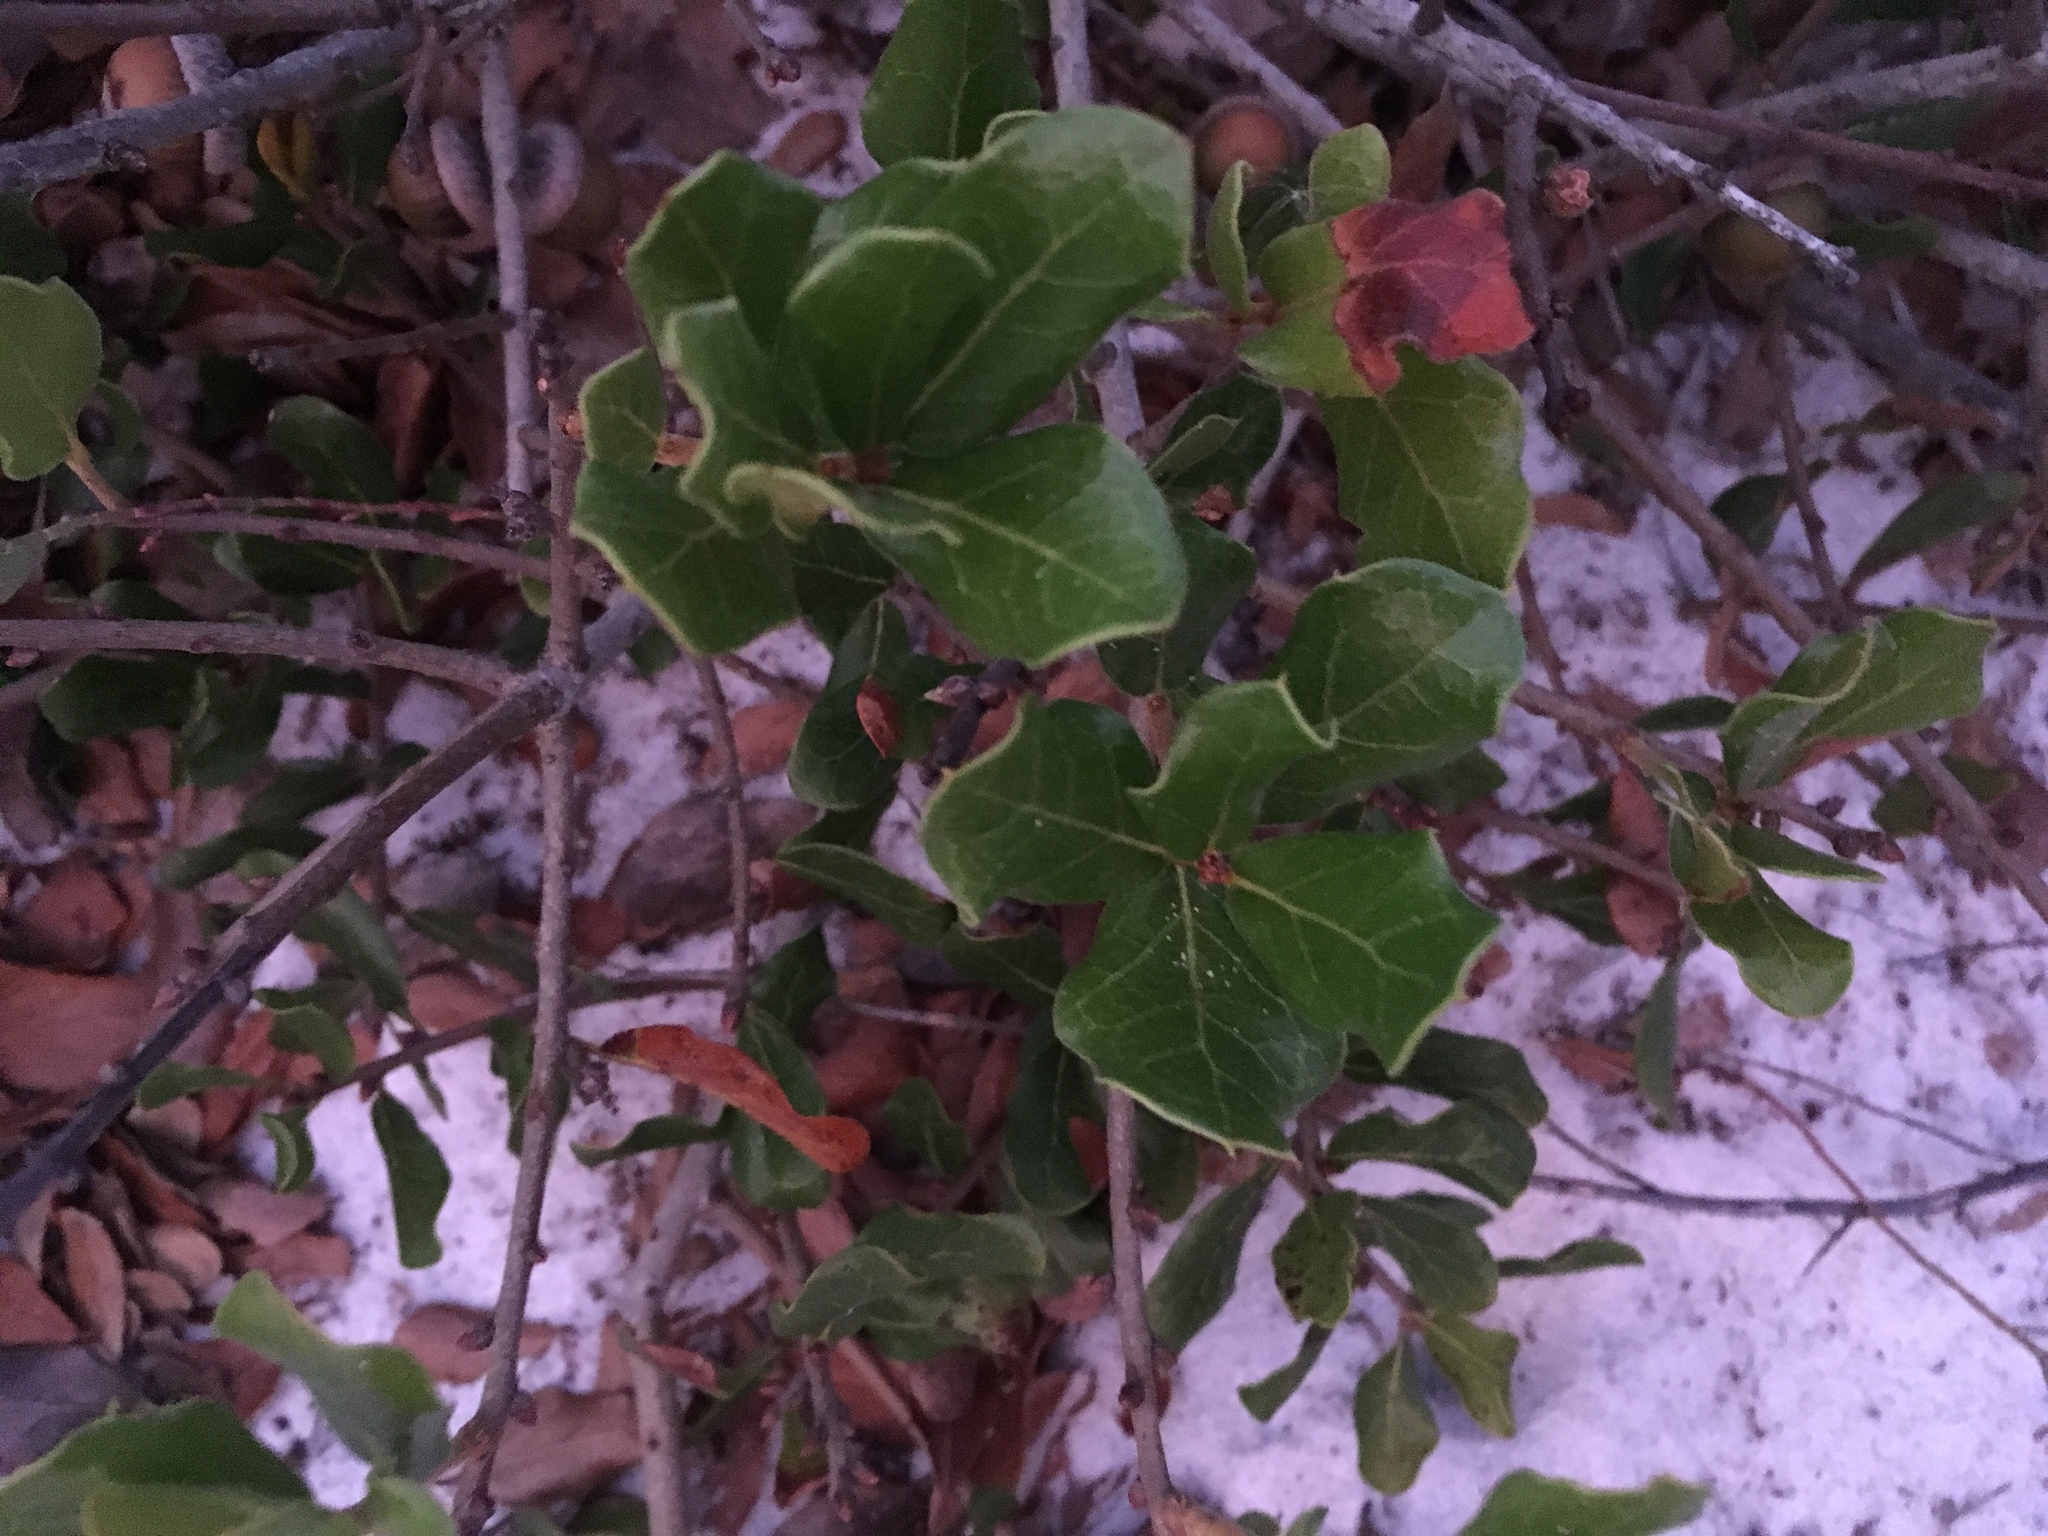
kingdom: Plantae
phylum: Tracheophyta
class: Magnoliopsida
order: Fagales
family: Fagaceae
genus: Quercus
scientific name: Quercus myrtifolia
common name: Myrtle oak
